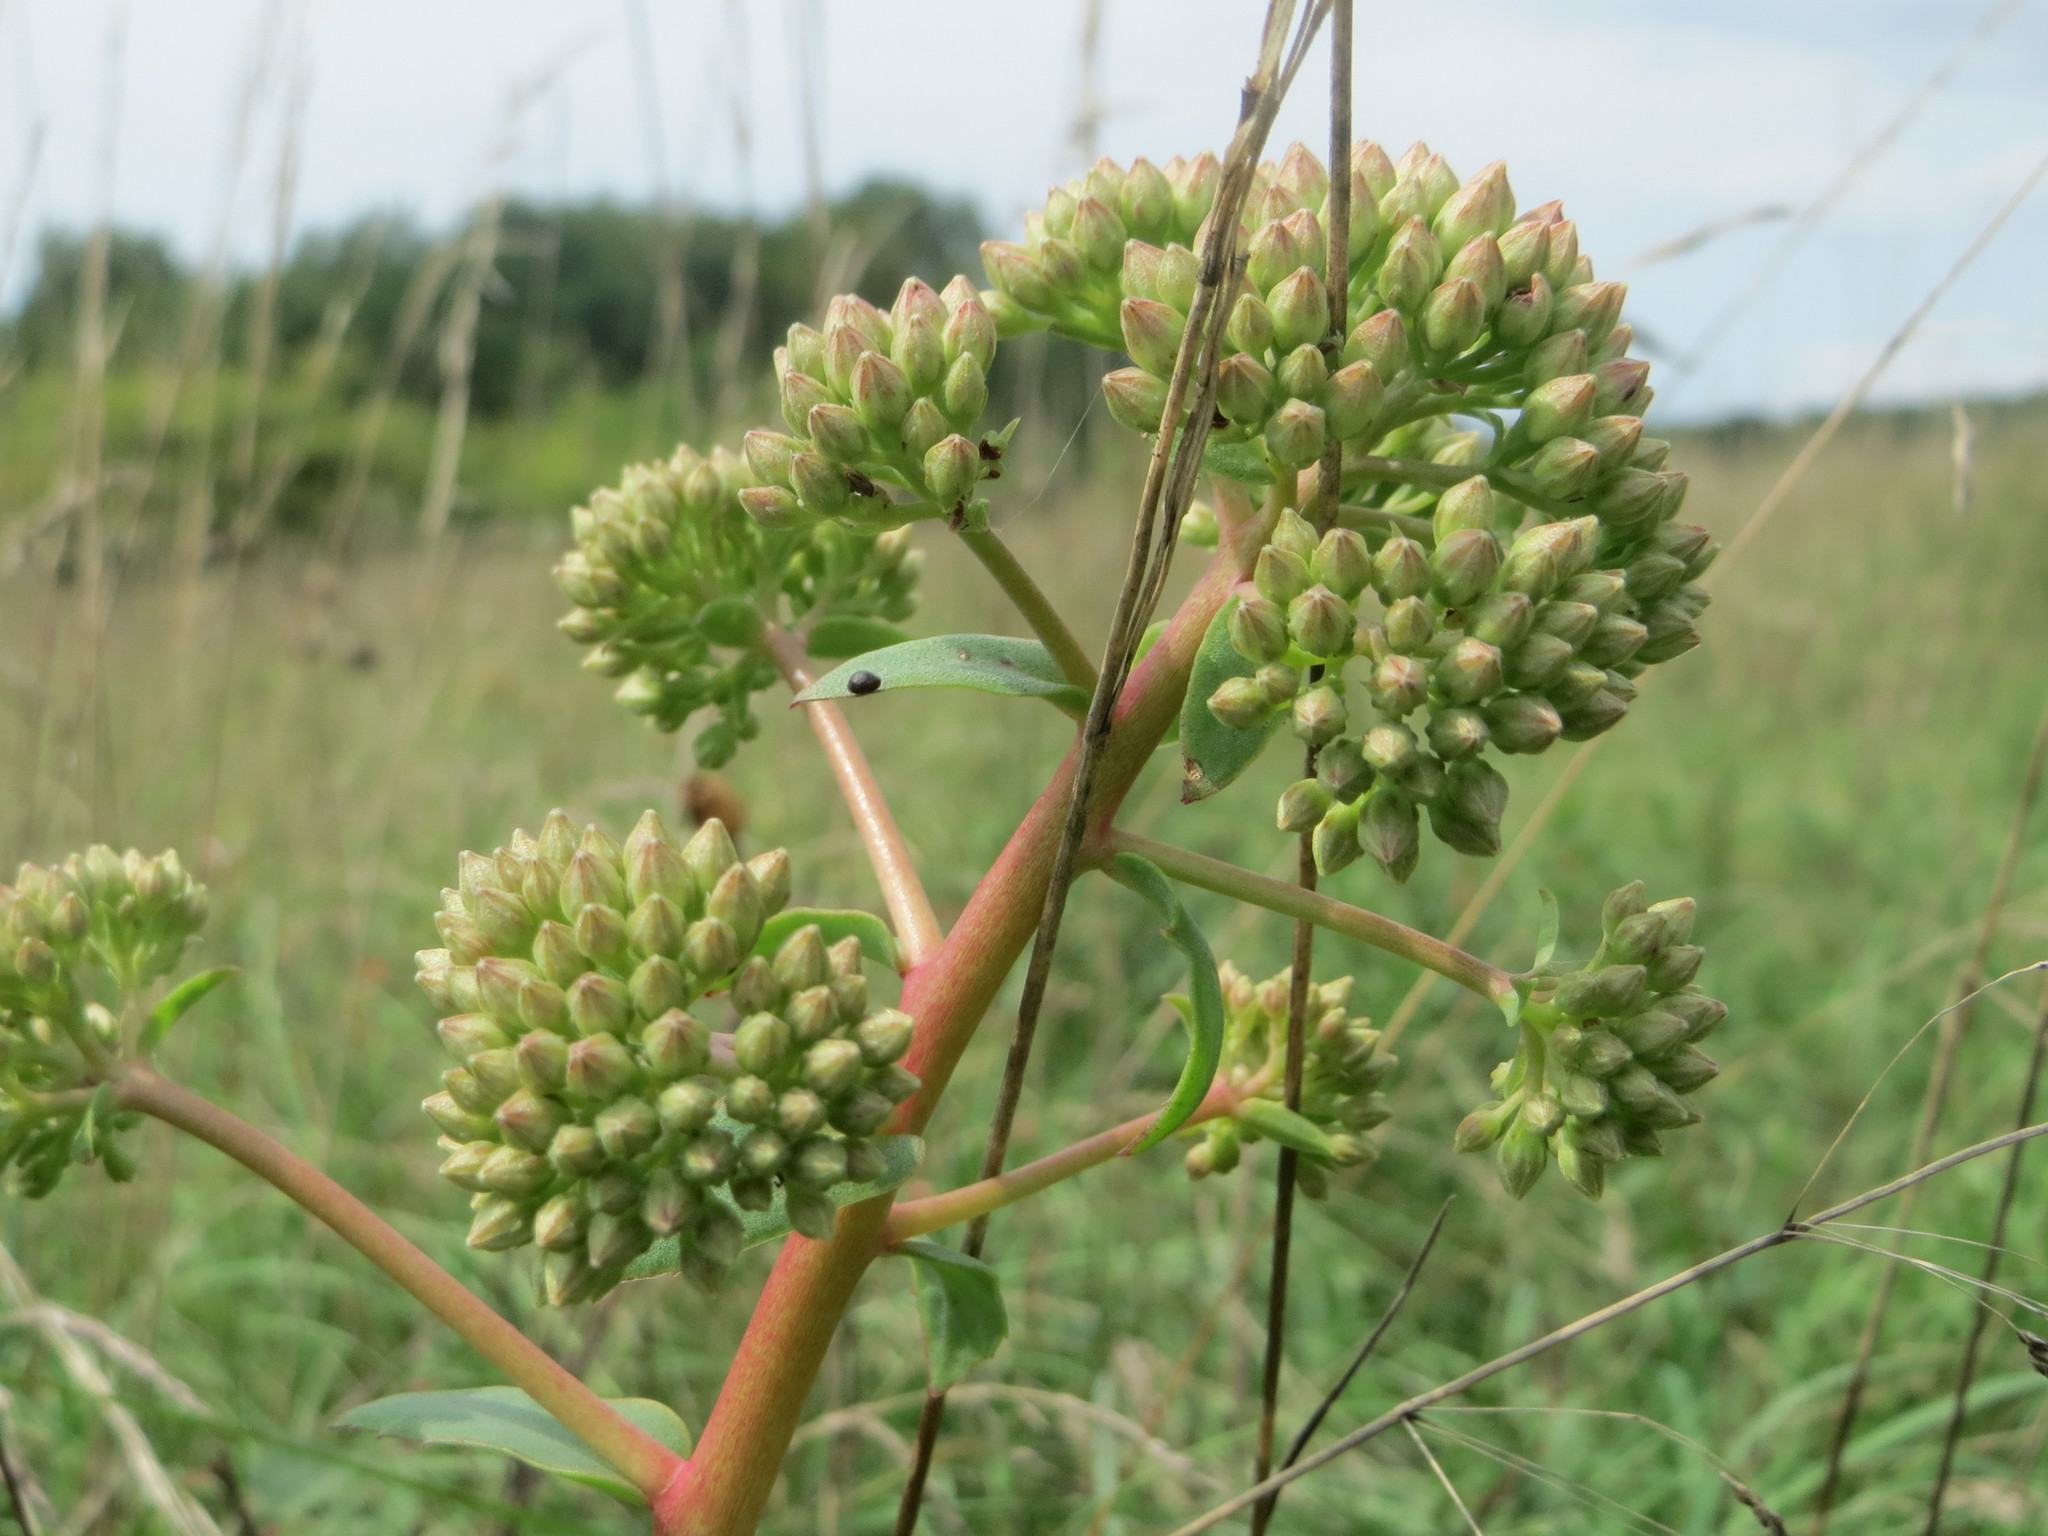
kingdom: Plantae
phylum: Tracheophyta
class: Magnoliopsida
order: Saxifragales
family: Crassulaceae
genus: Hylotelephium
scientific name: Hylotelephium telephium
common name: Live-forever
